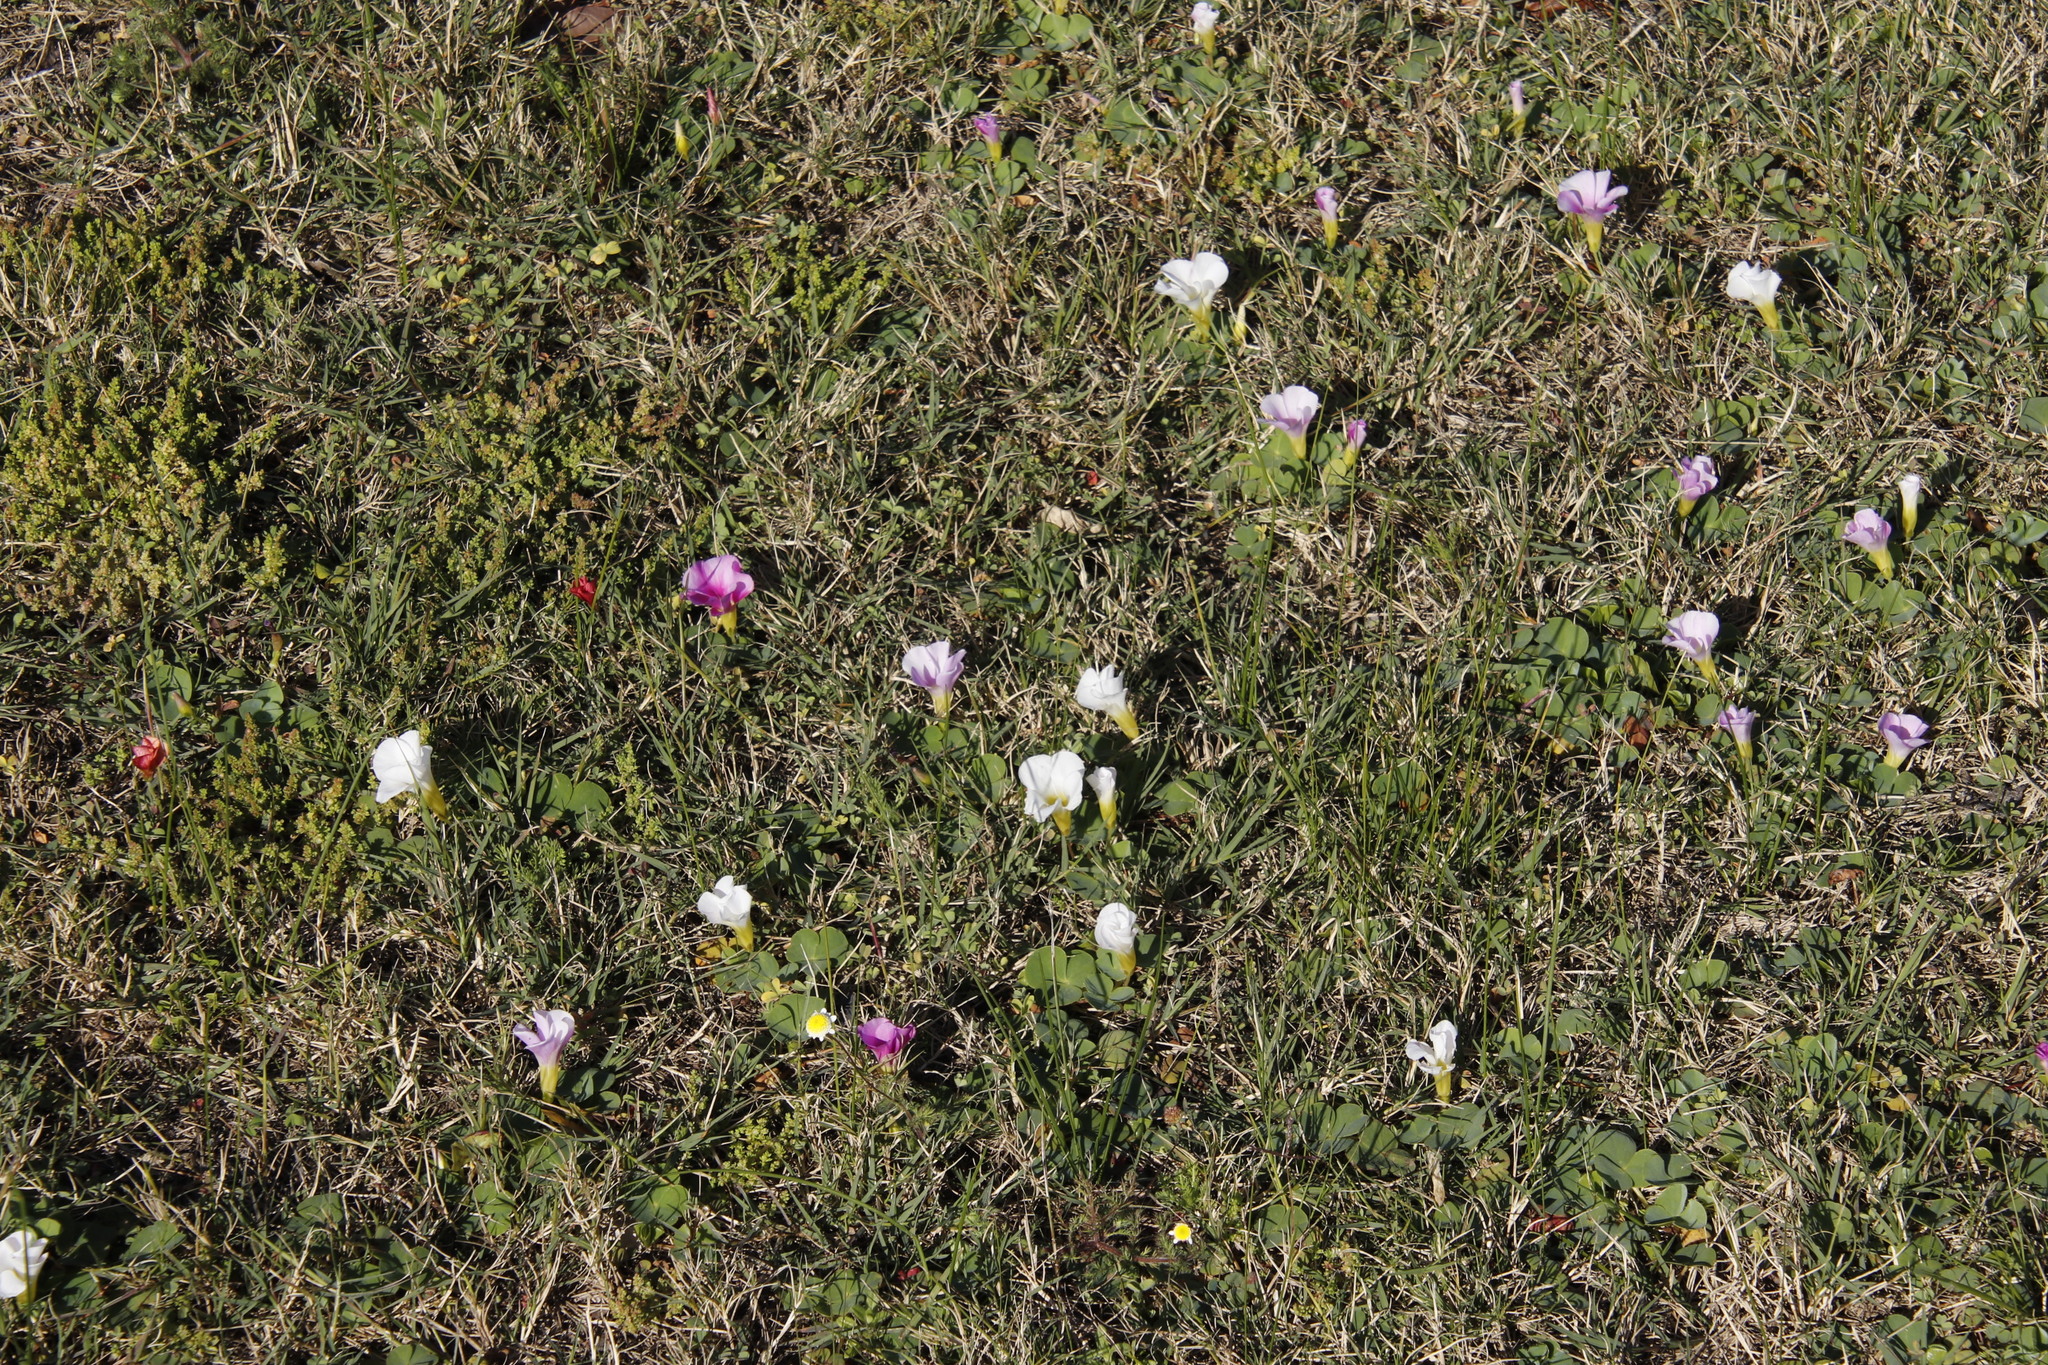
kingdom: Plantae
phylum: Tracheophyta
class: Magnoliopsida
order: Oxalidales
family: Oxalidaceae
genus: Oxalis
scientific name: Oxalis purpurea
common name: Purple woodsorrel
